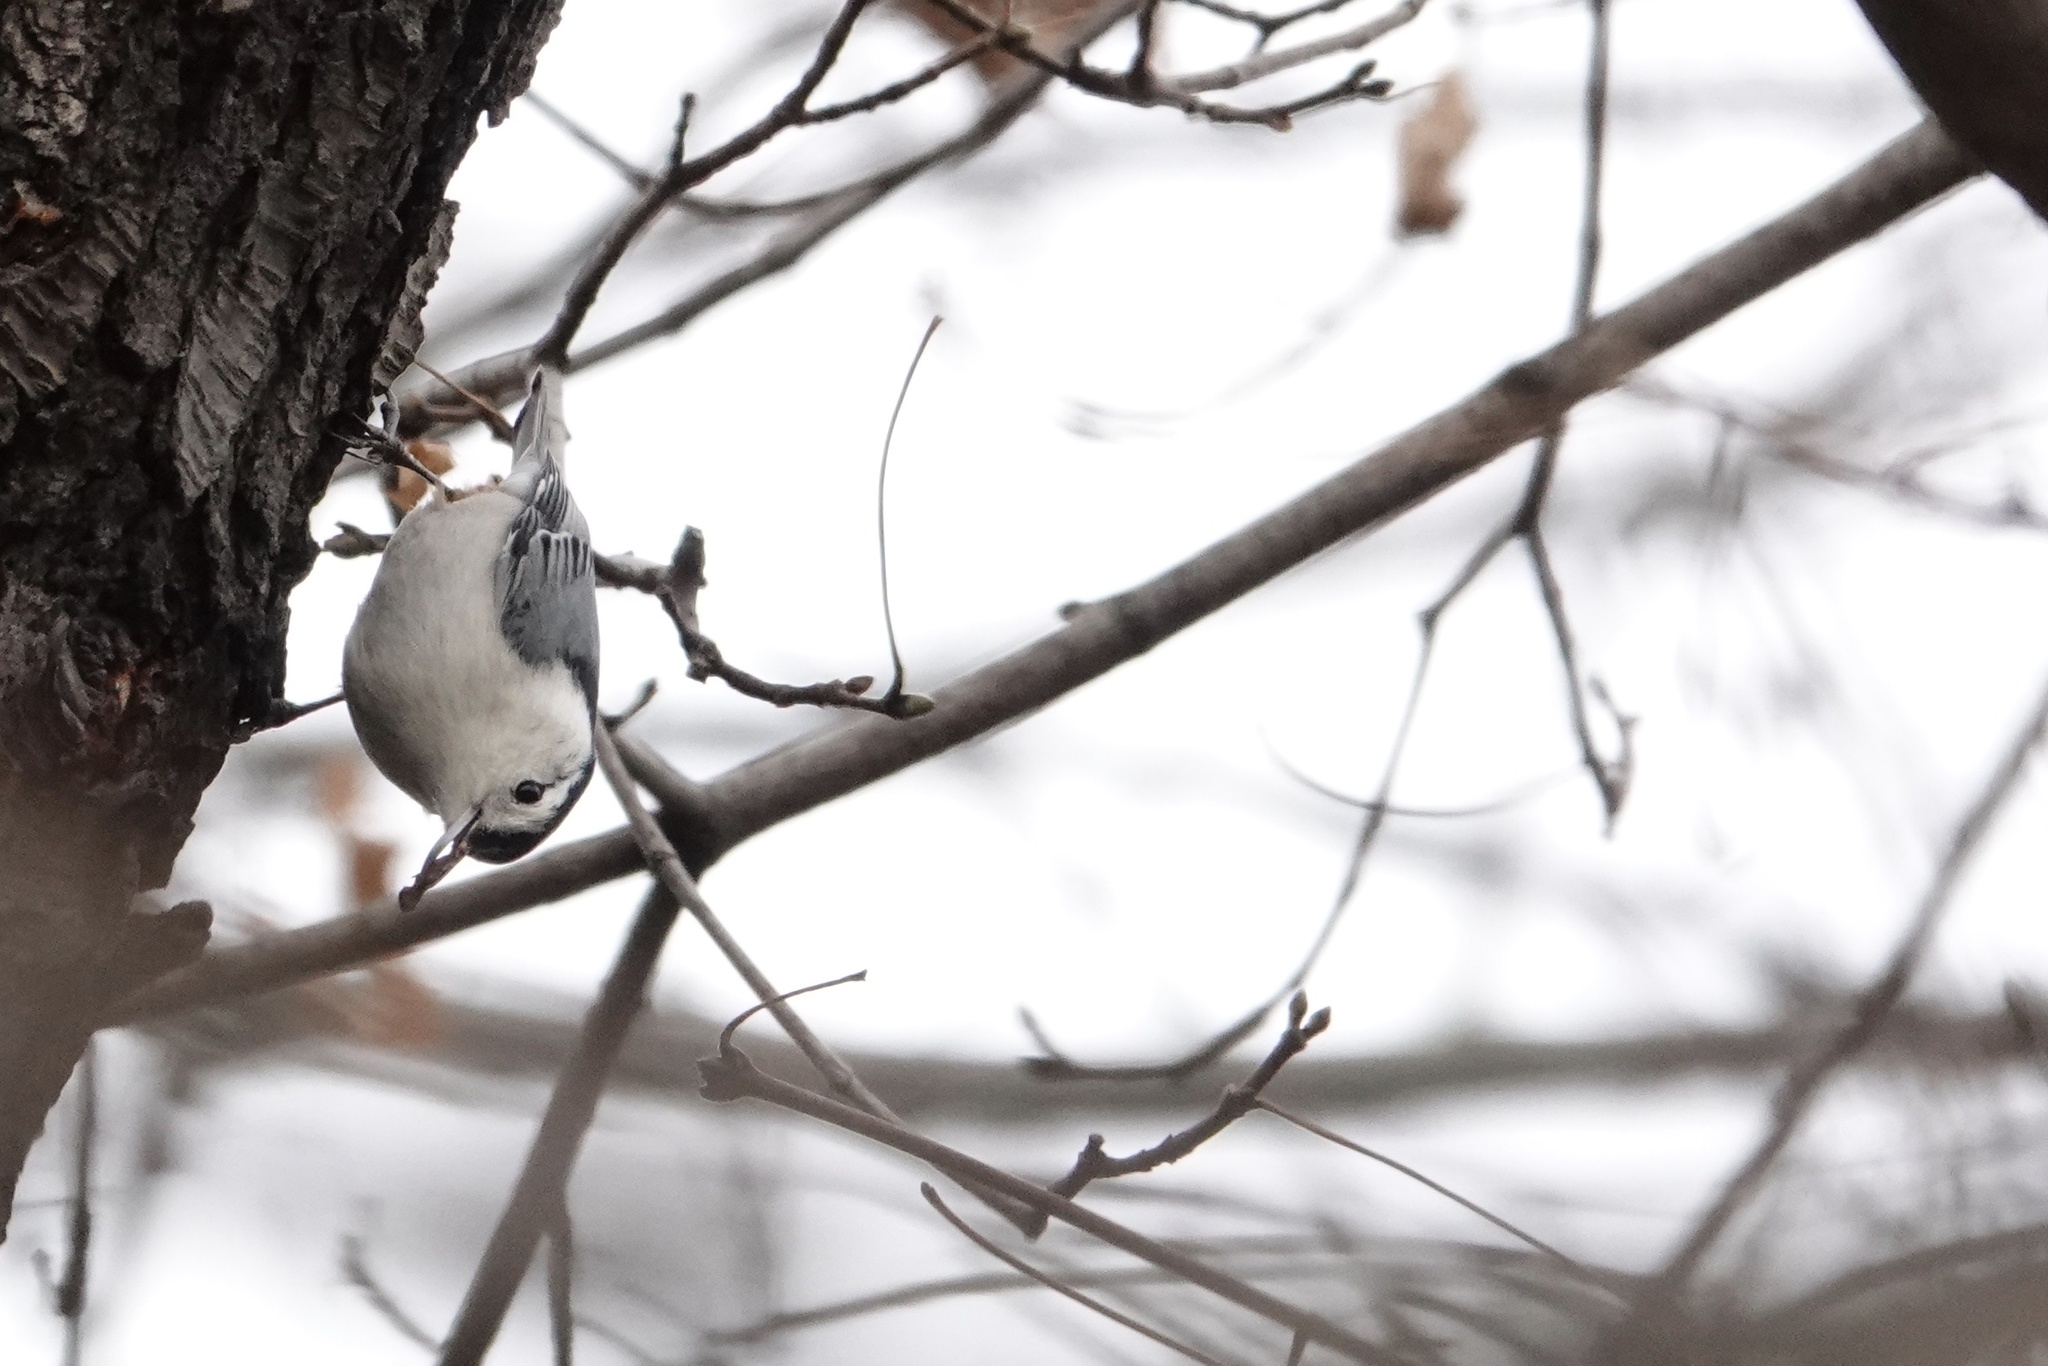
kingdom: Animalia
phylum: Chordata
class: Aves
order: Passeriformes
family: Sittidae
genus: Sitta
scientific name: Sitta carolinensis
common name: White-breasted nuthatch
